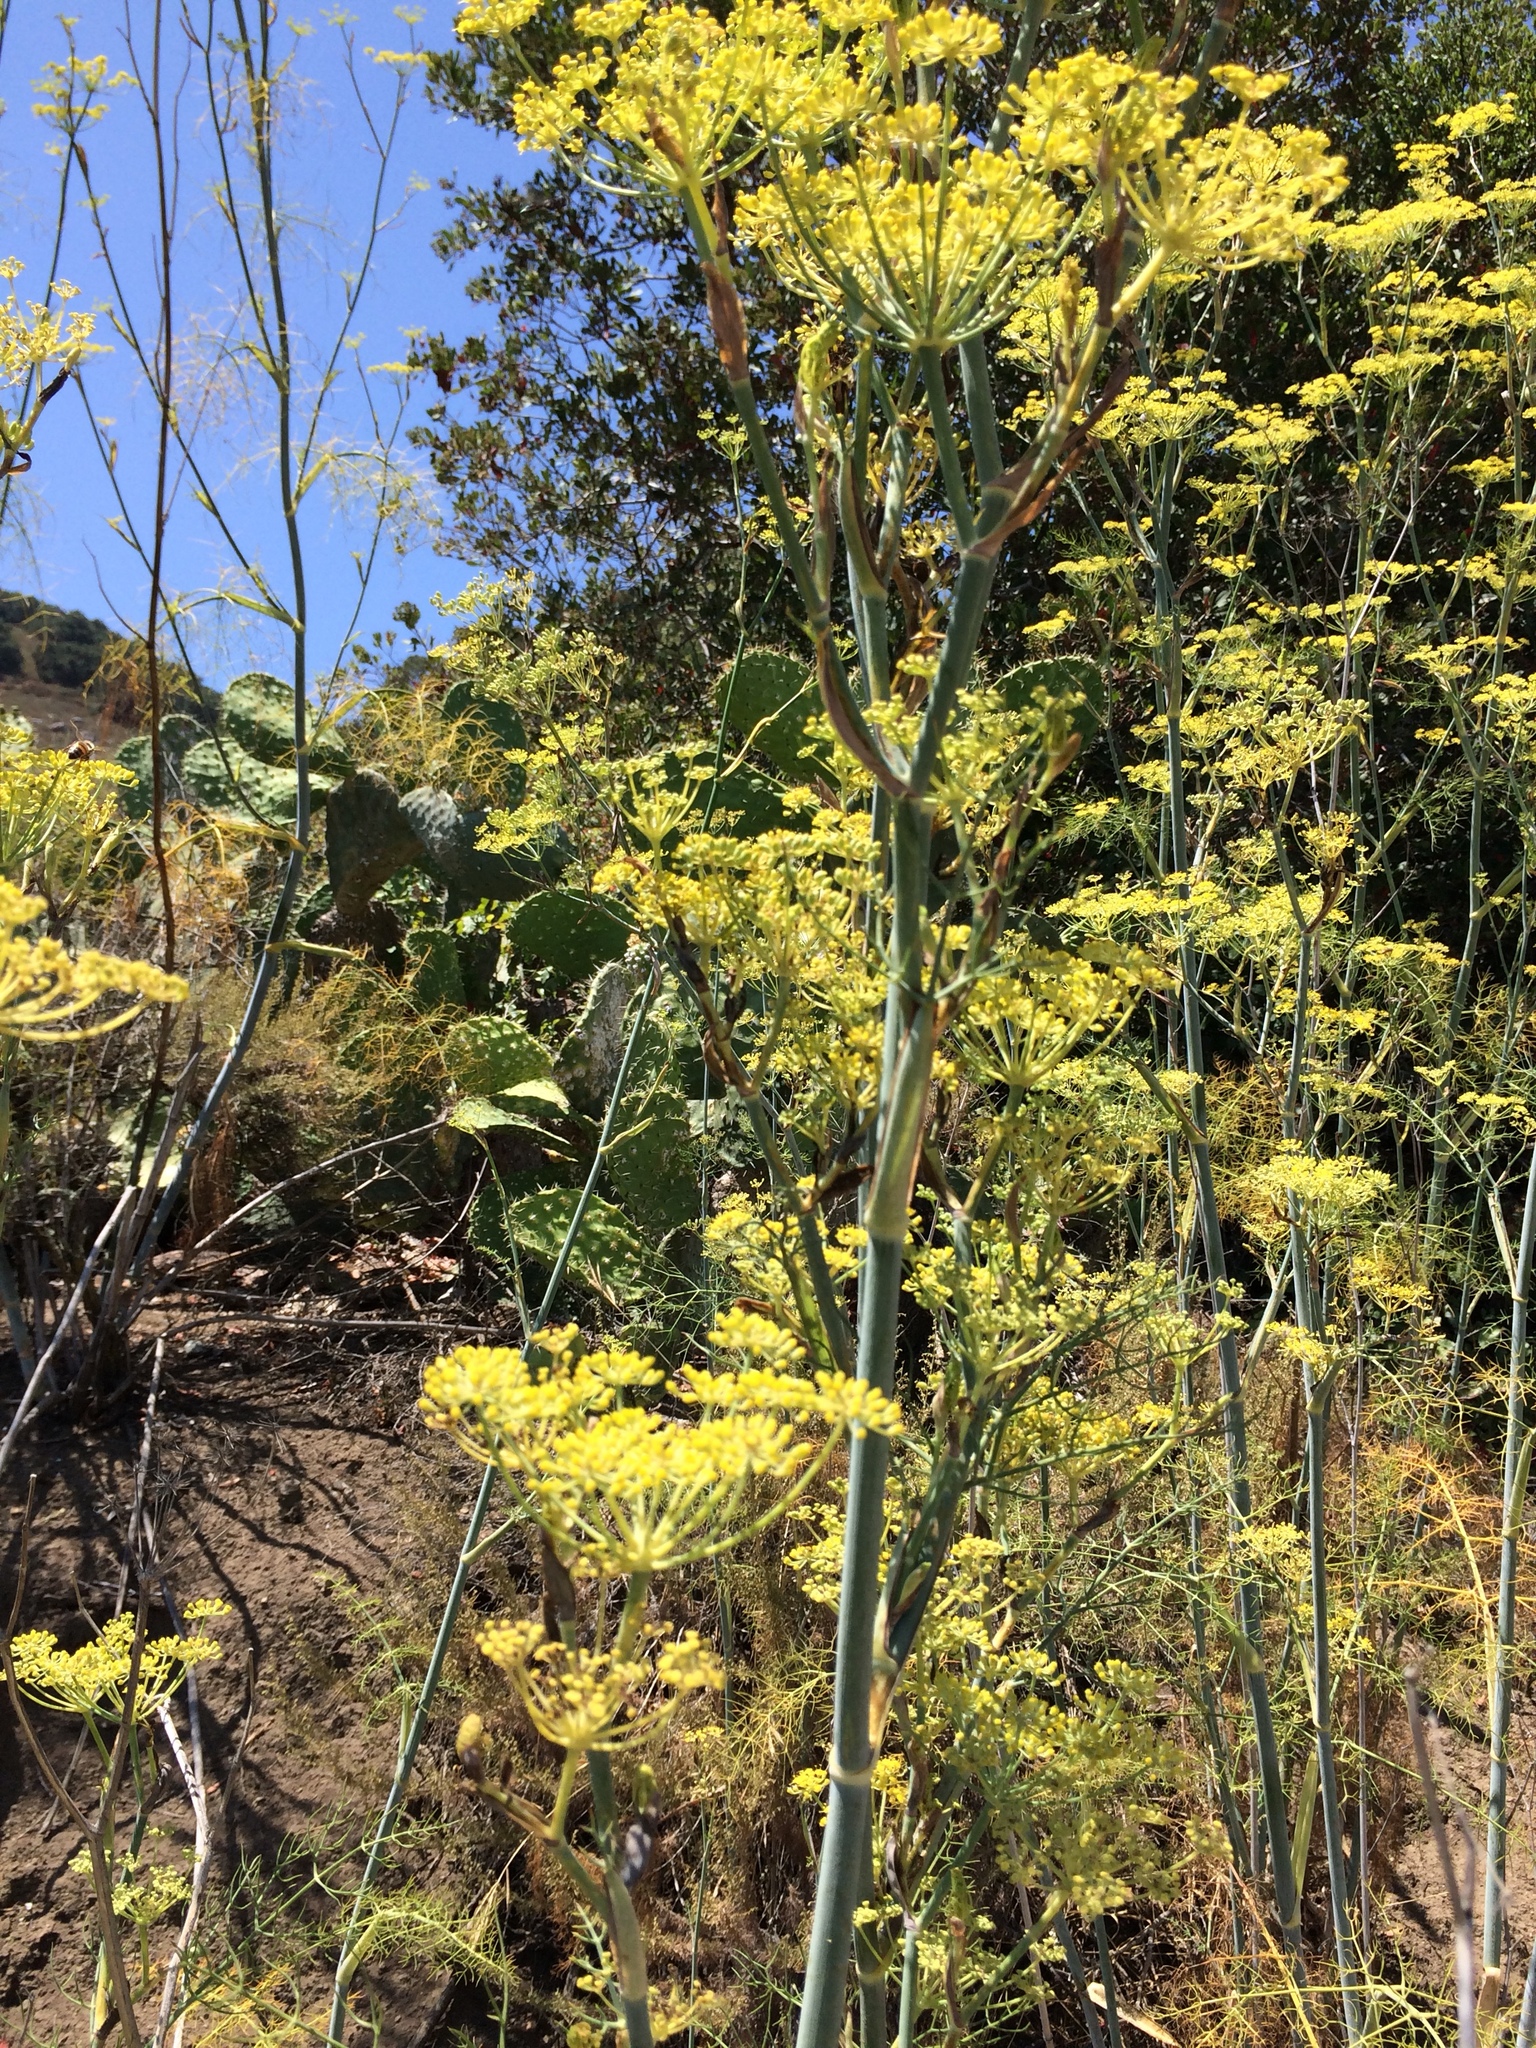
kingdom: Plantae
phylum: Tracheophyta
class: Magnoliopsida
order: Apiales
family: Apiaceae
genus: Foeniculum
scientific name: Foeniculum vulgare
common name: Fennel
